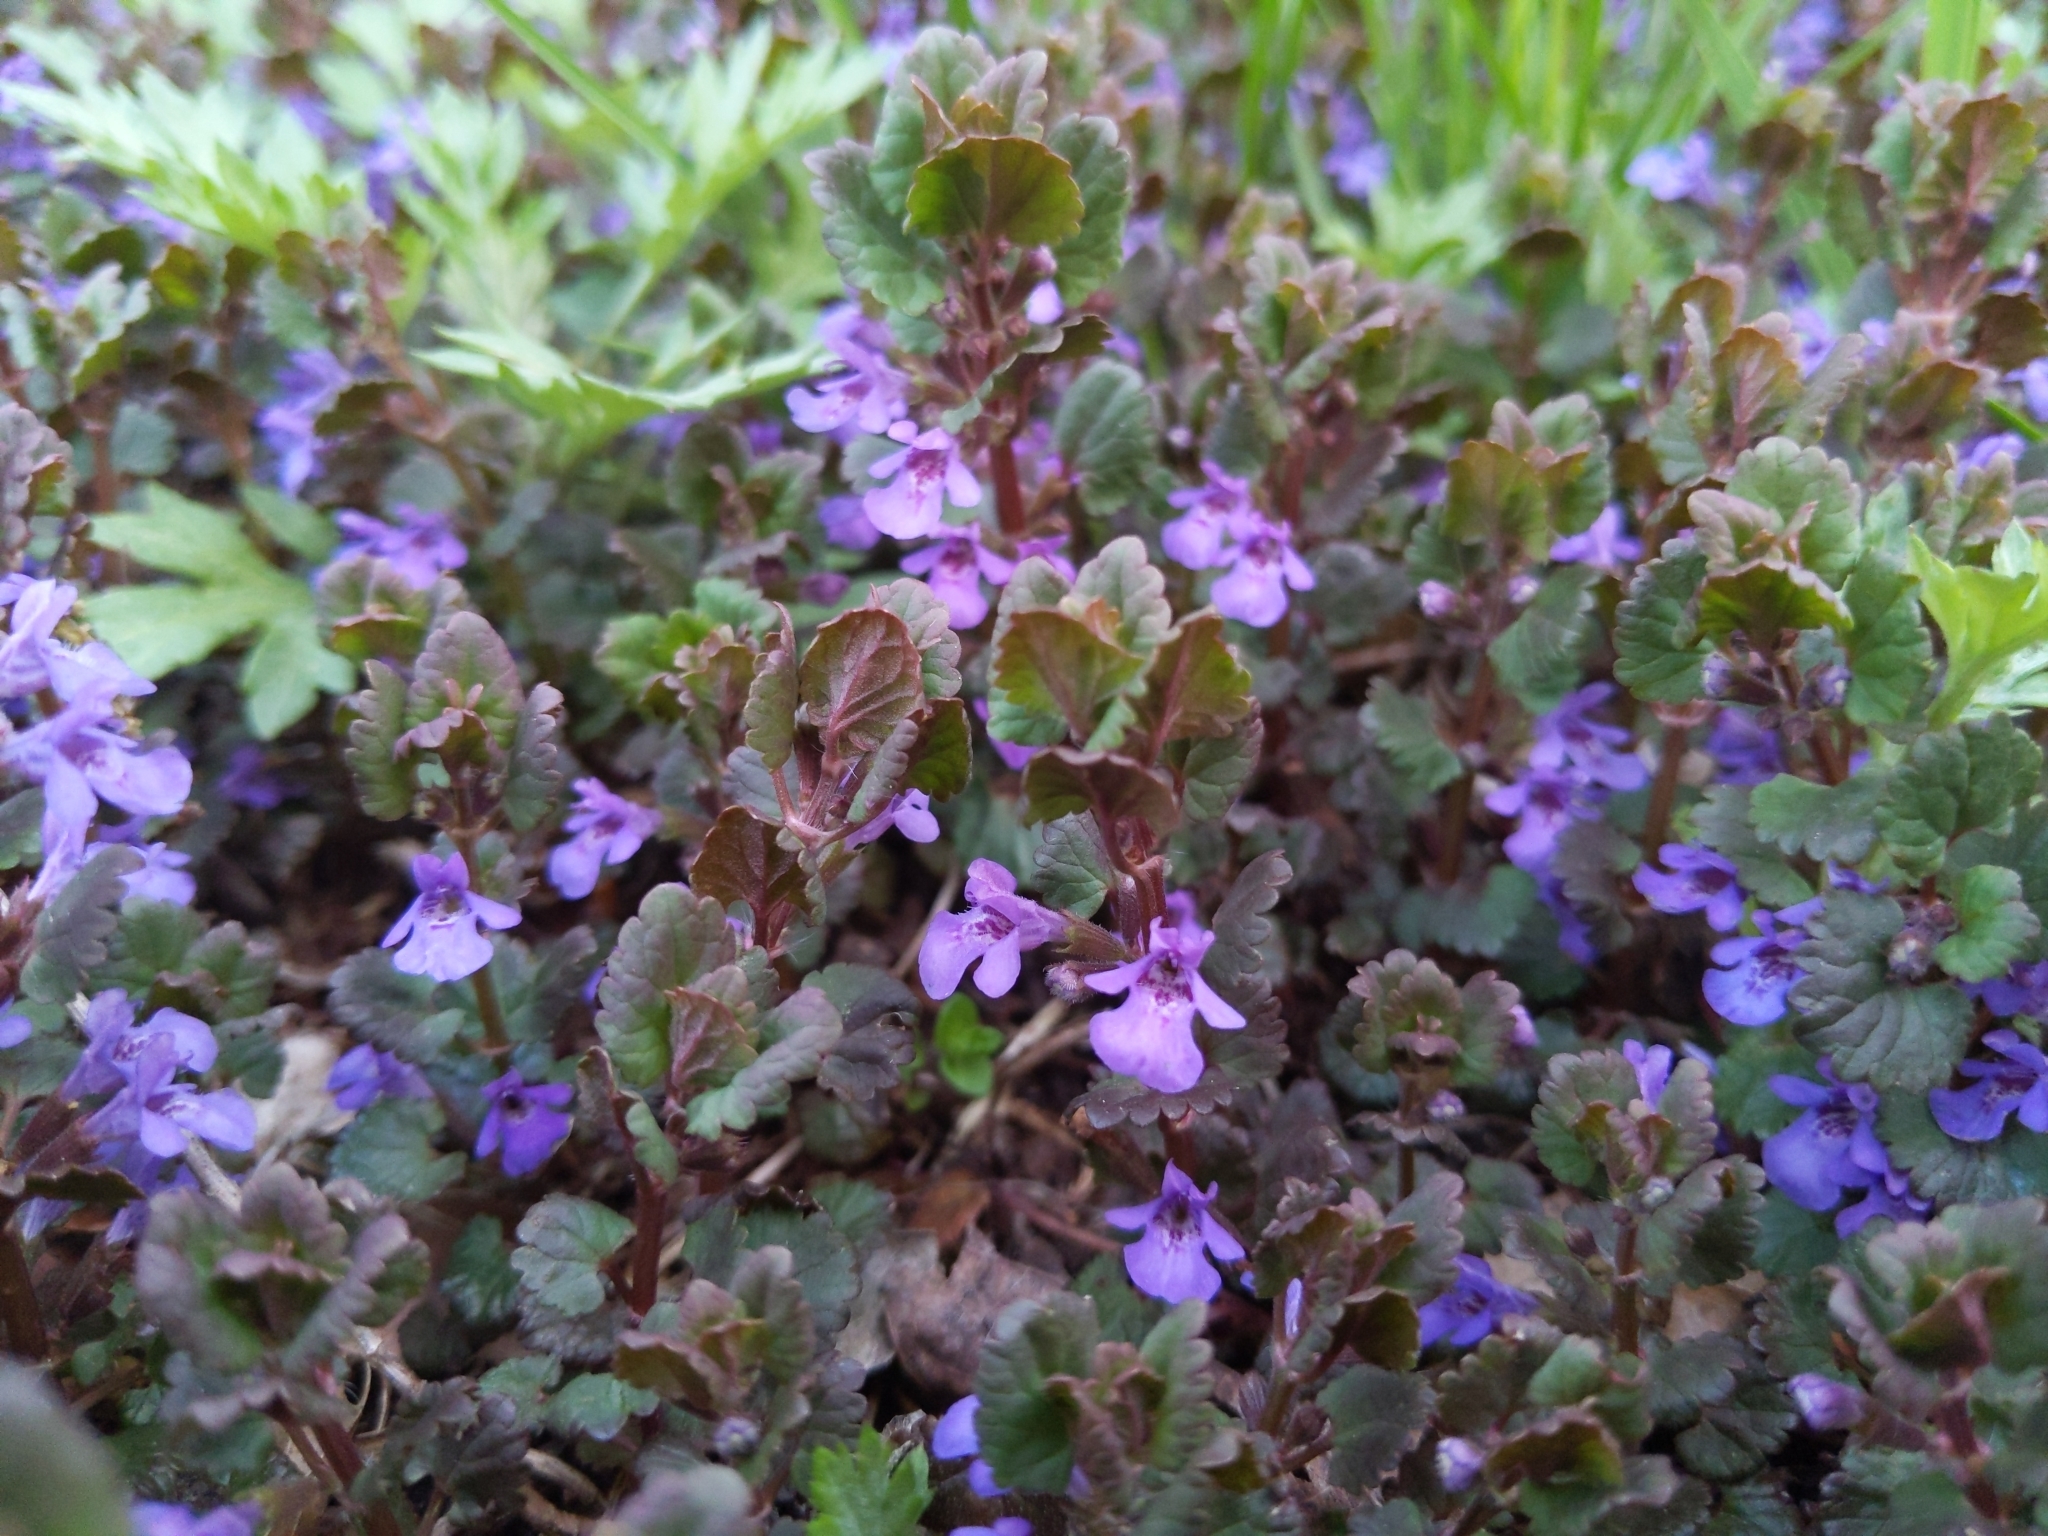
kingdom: Plantae
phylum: Tracheophyta
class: Magnoliopsida
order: Lamiales
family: Lamiaceae
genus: Glechoma
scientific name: Glechoma hederacea
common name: Ground ivy
